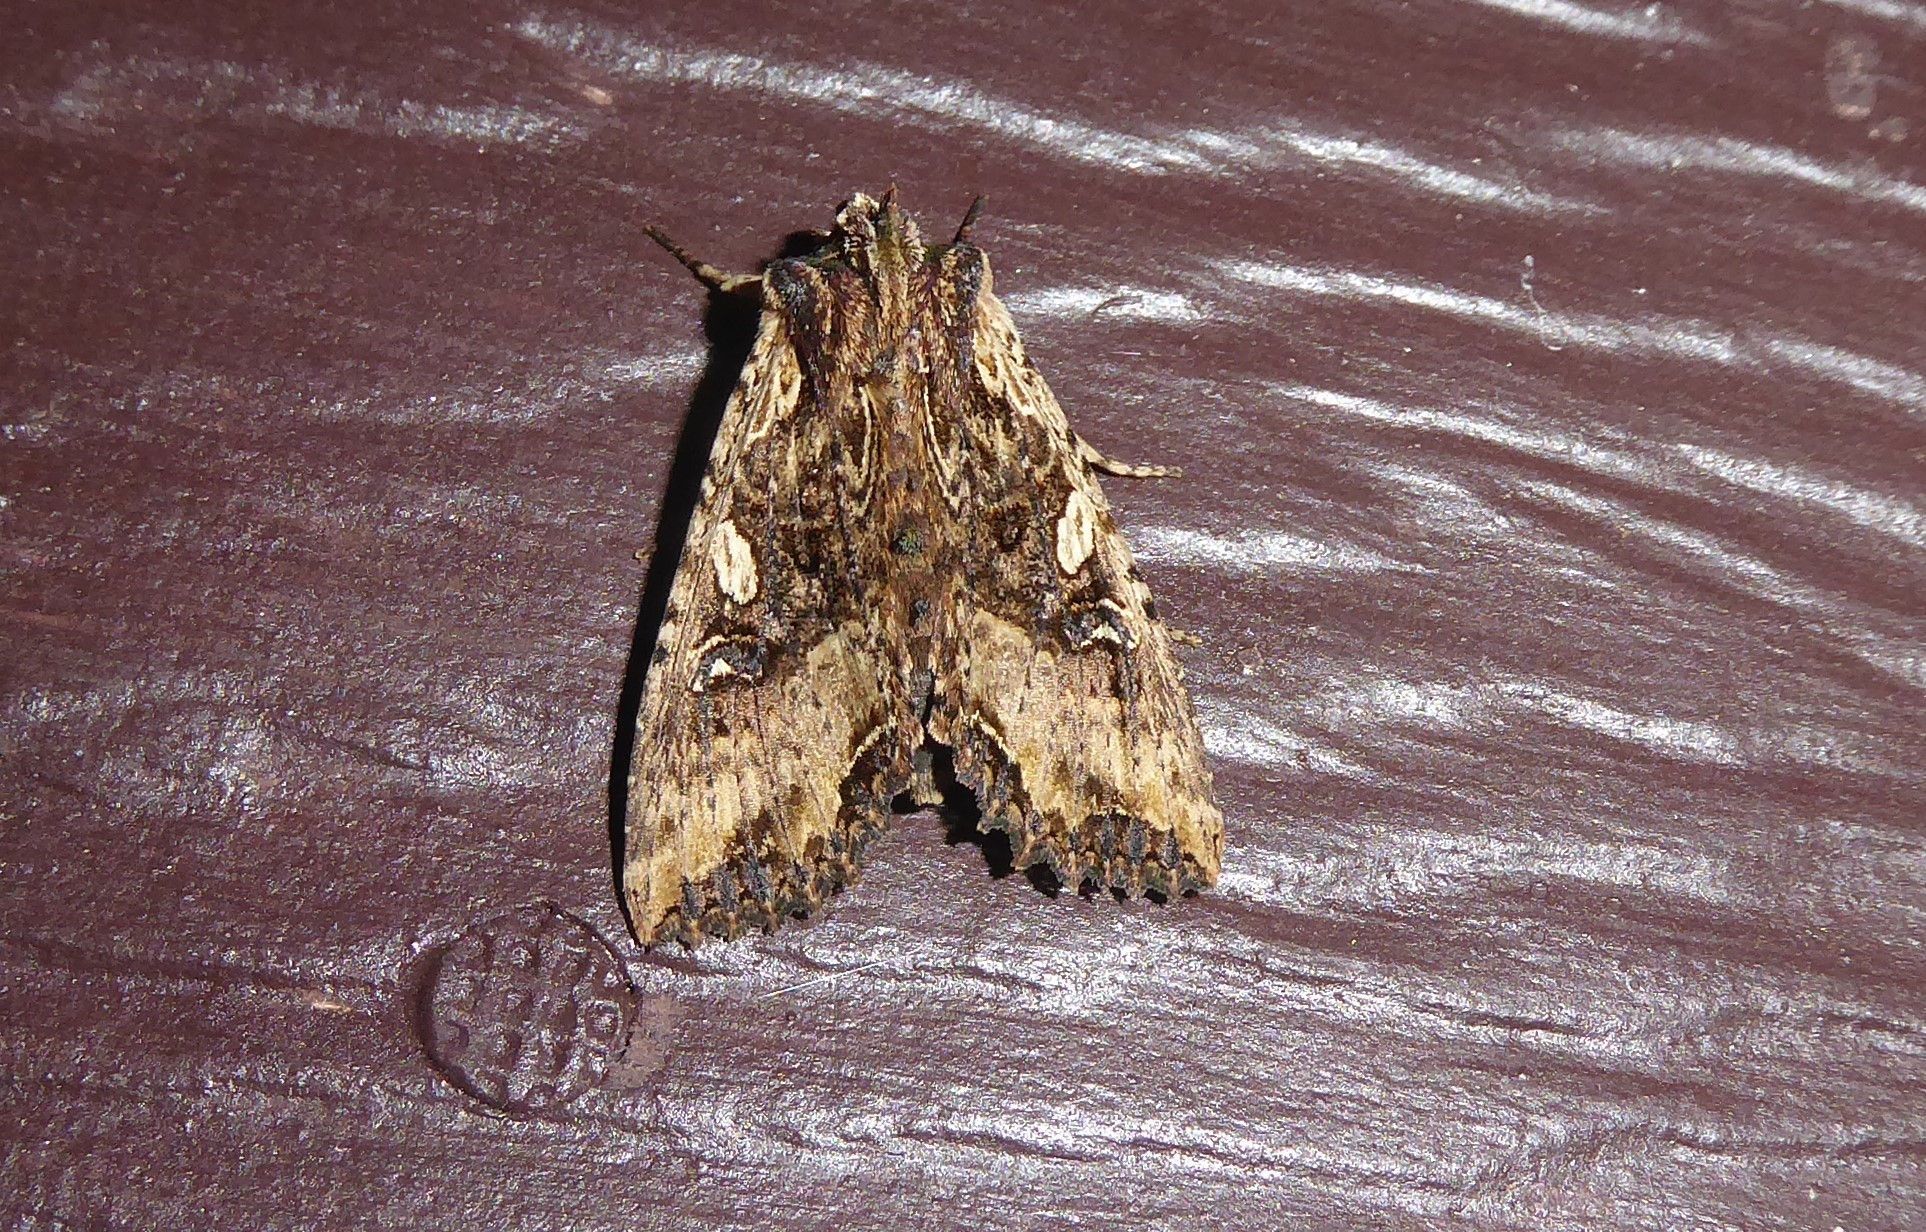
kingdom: Animalia
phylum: Arthropoda
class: Insecta
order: Lepidoptera
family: Noctuidae
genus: Meterana
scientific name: Meterana stipata
